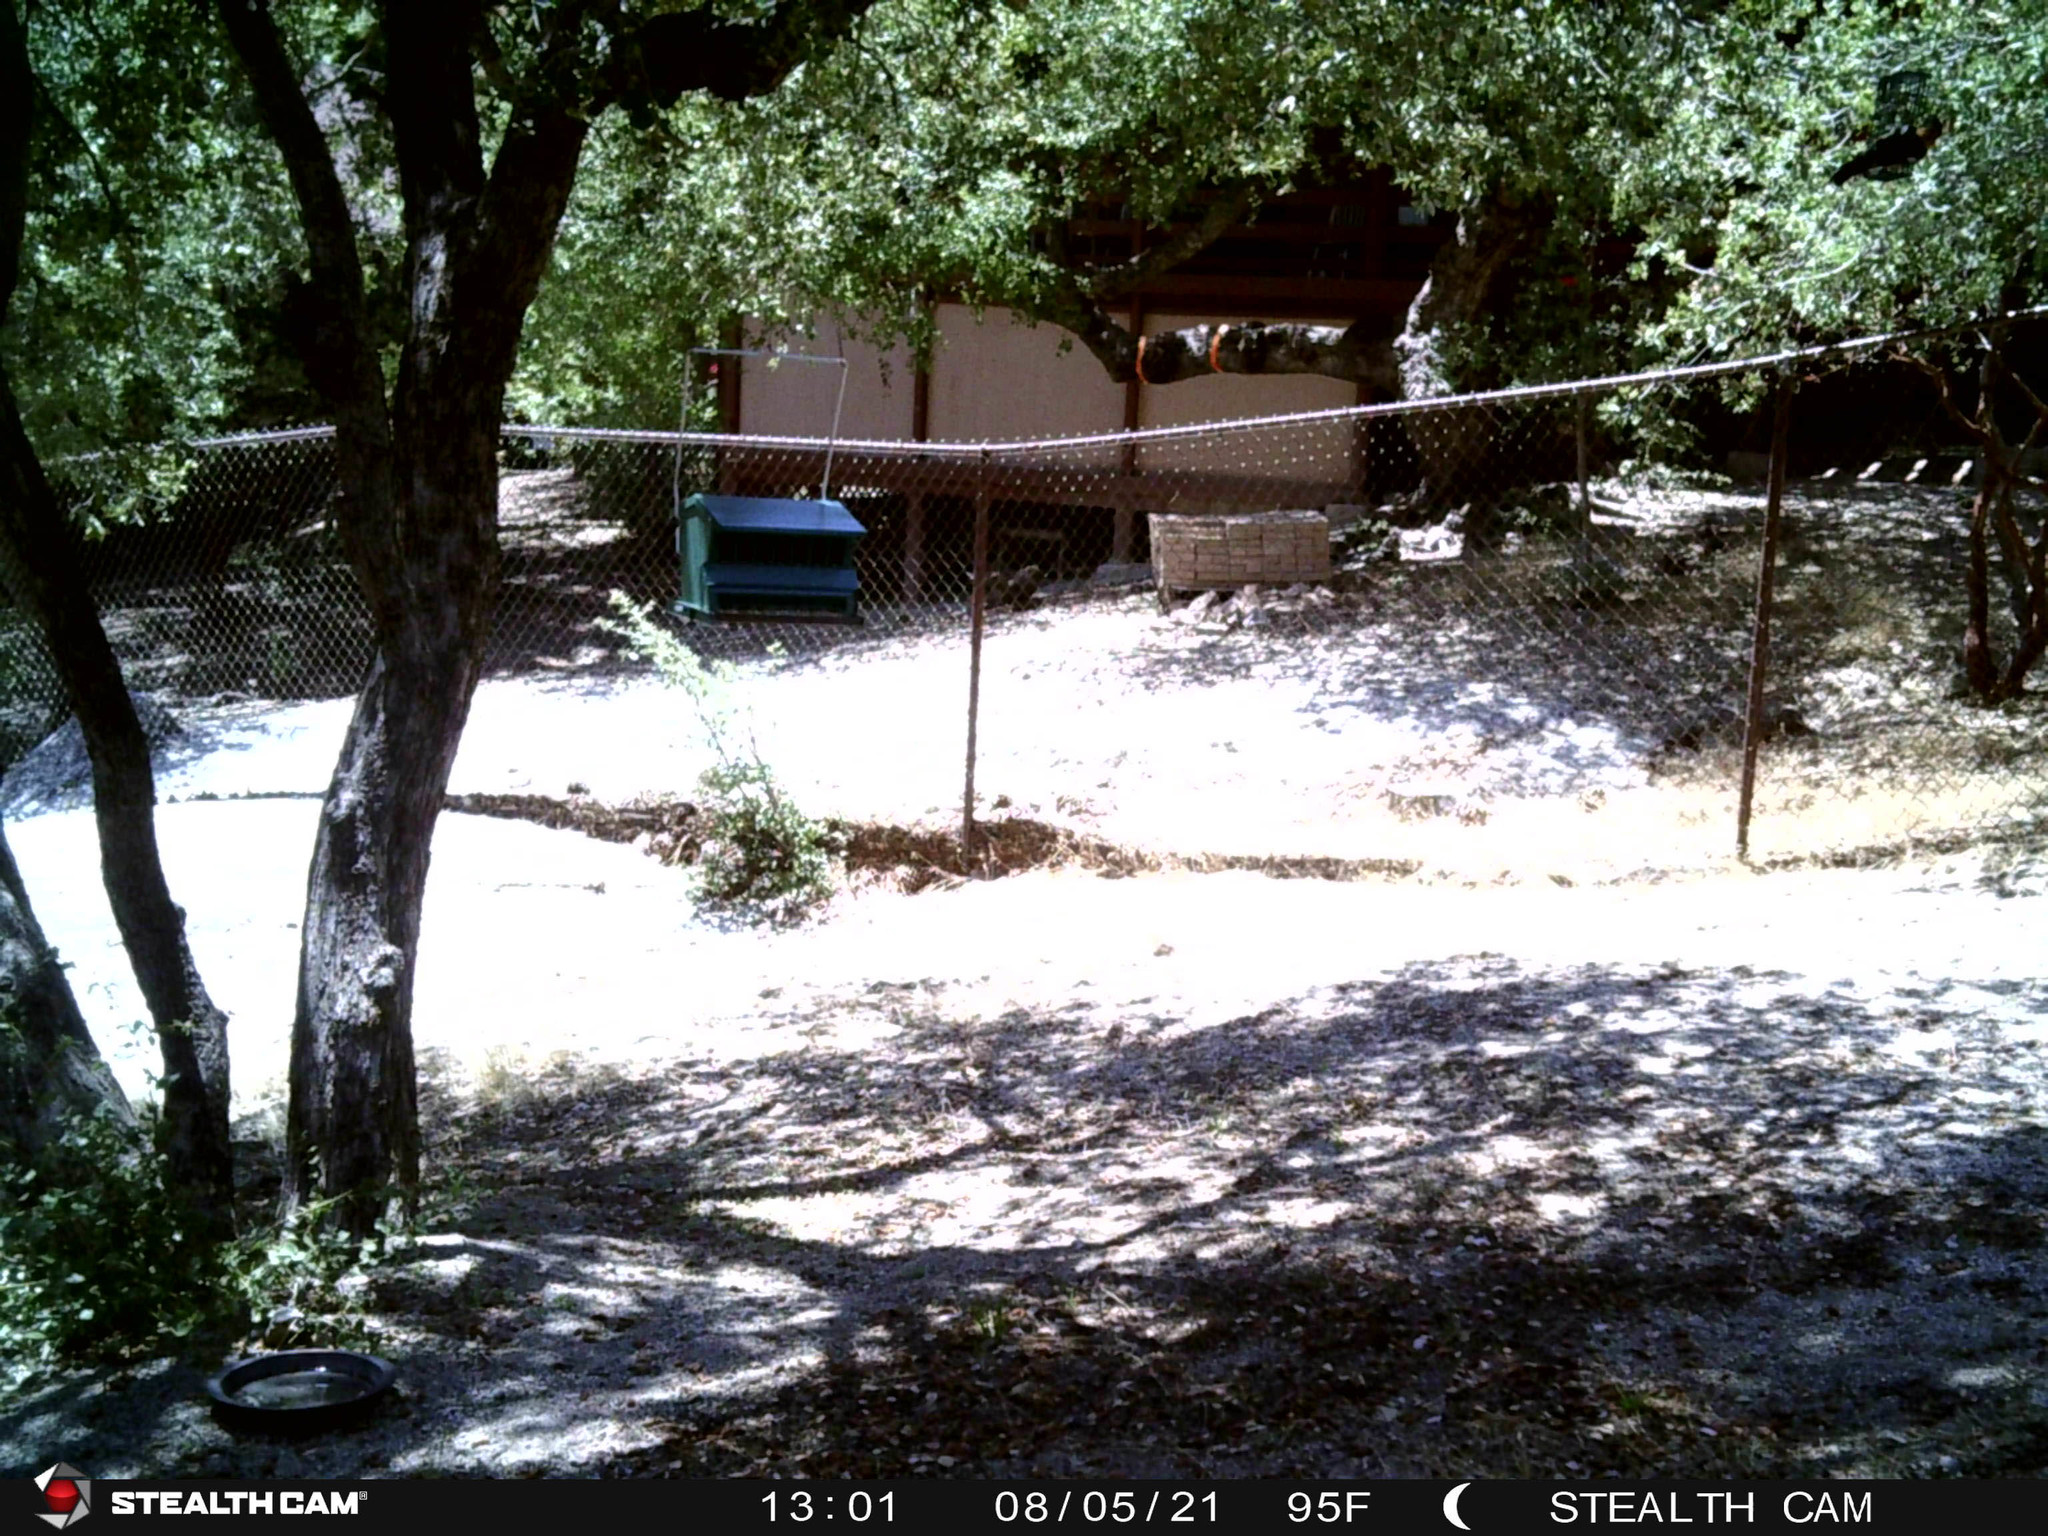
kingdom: Animalia
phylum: Chordata
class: Aves
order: Passeriformes
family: Cardinalidae
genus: Pheucticus
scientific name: Pheucticus melanocephalus
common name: Black-headed grosbeak
